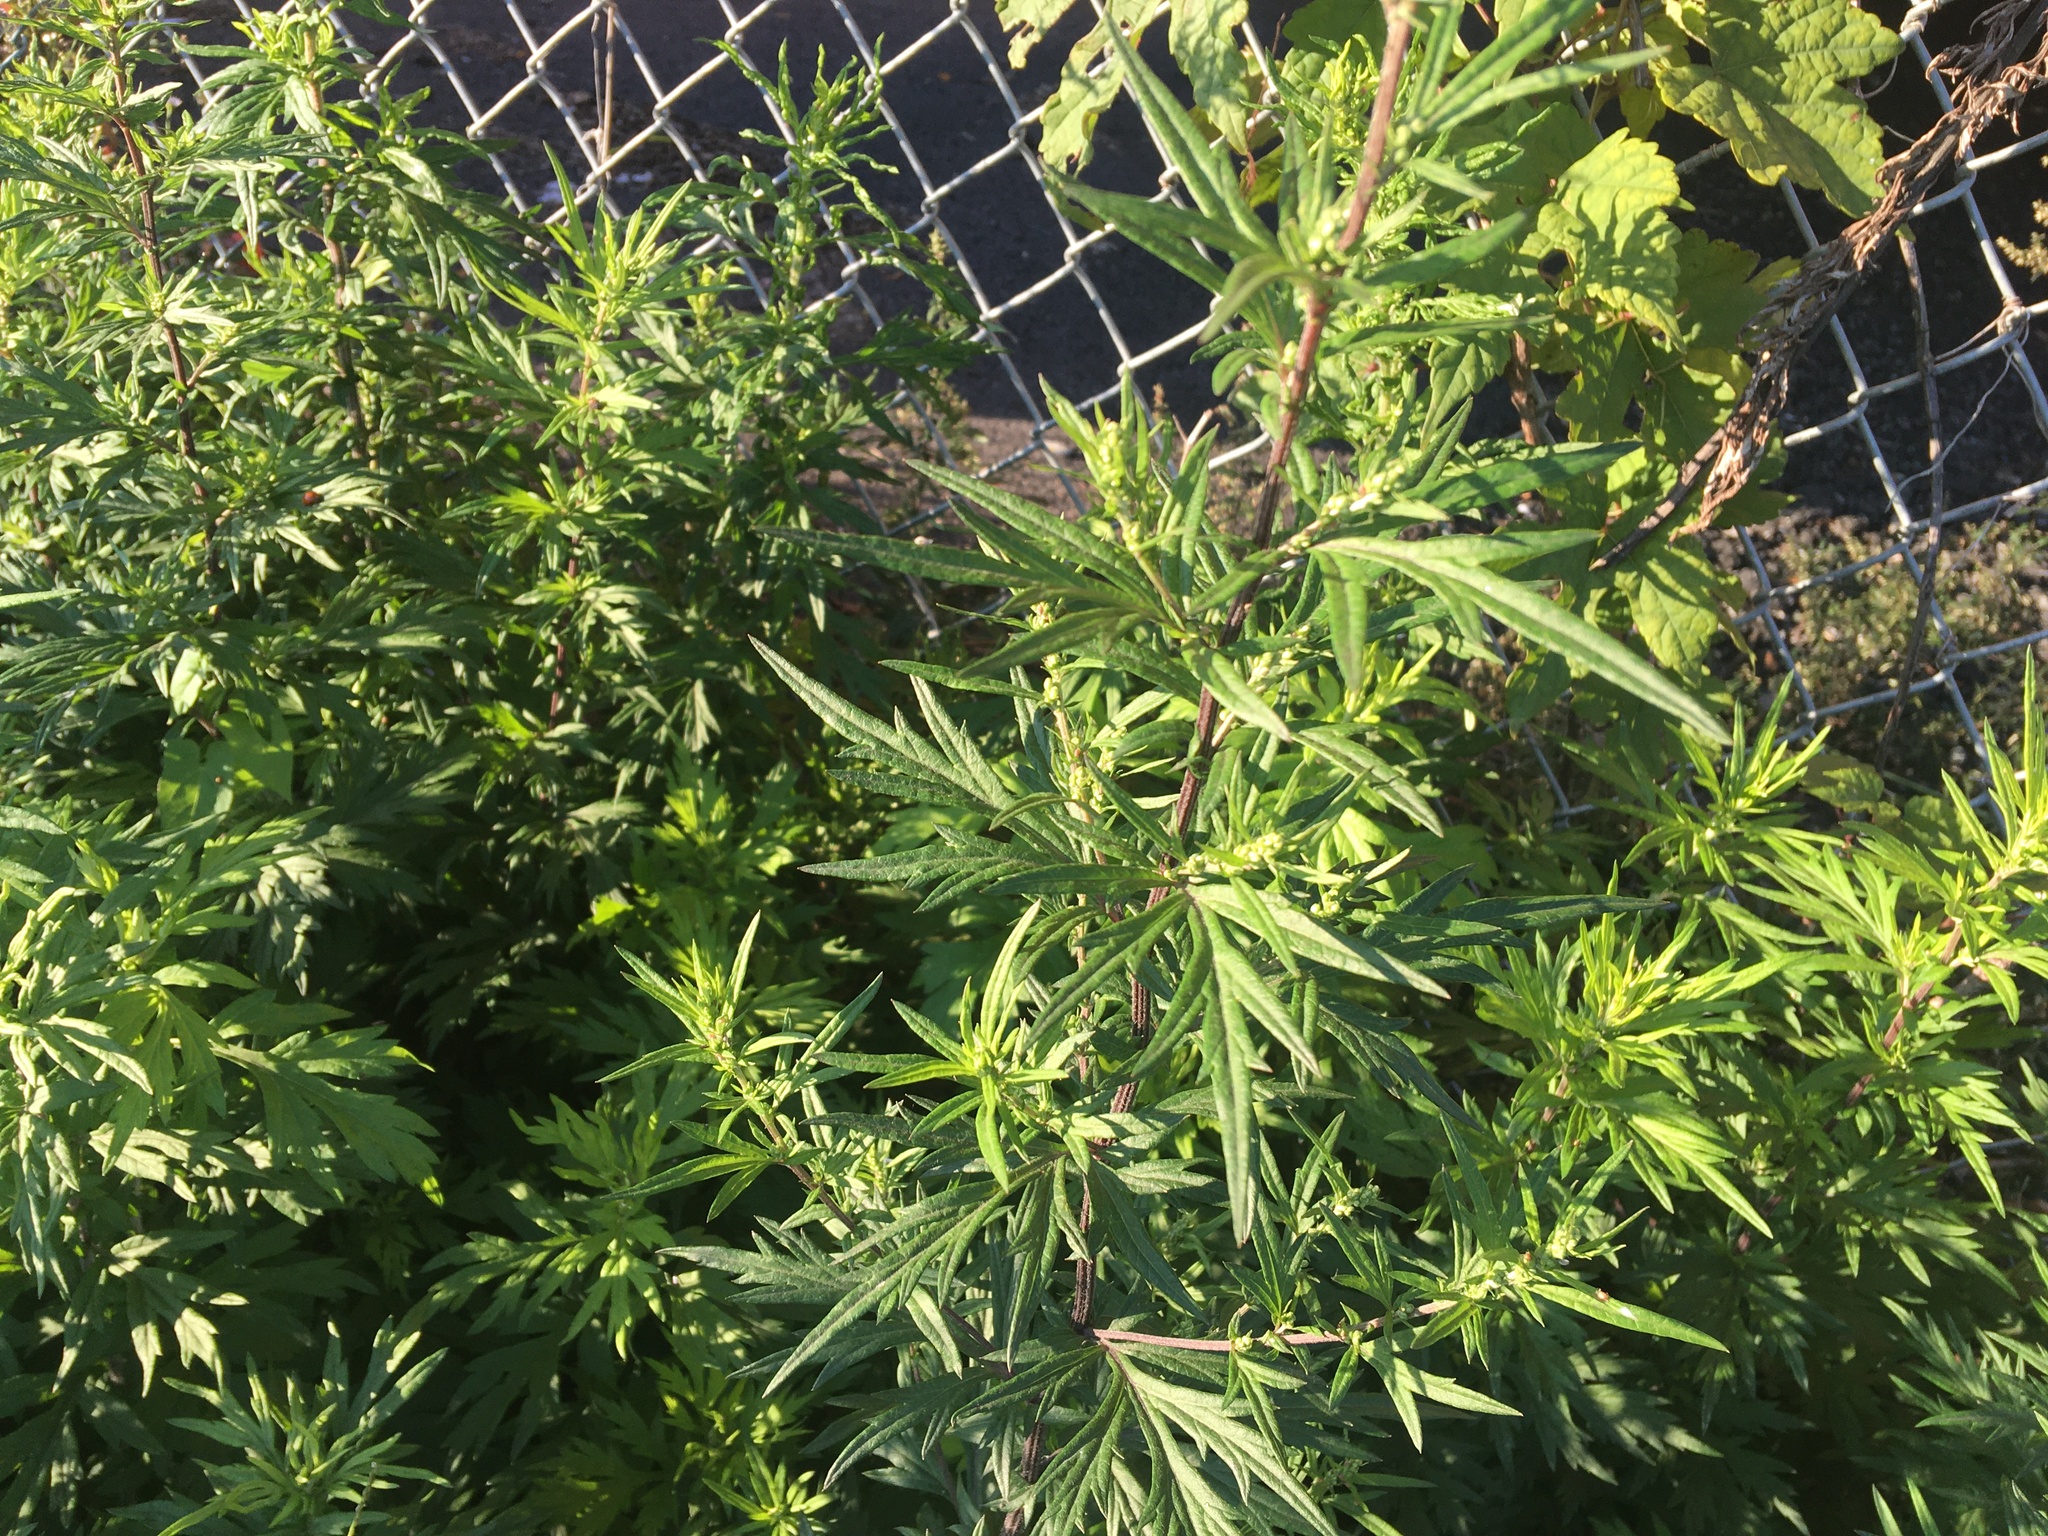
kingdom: Plantae
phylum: Tracheophyta
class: Magnoliopsida
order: Asterales
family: Asteraceae
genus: Artemisia
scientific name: Artemisia vulgaris
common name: Mugwort
